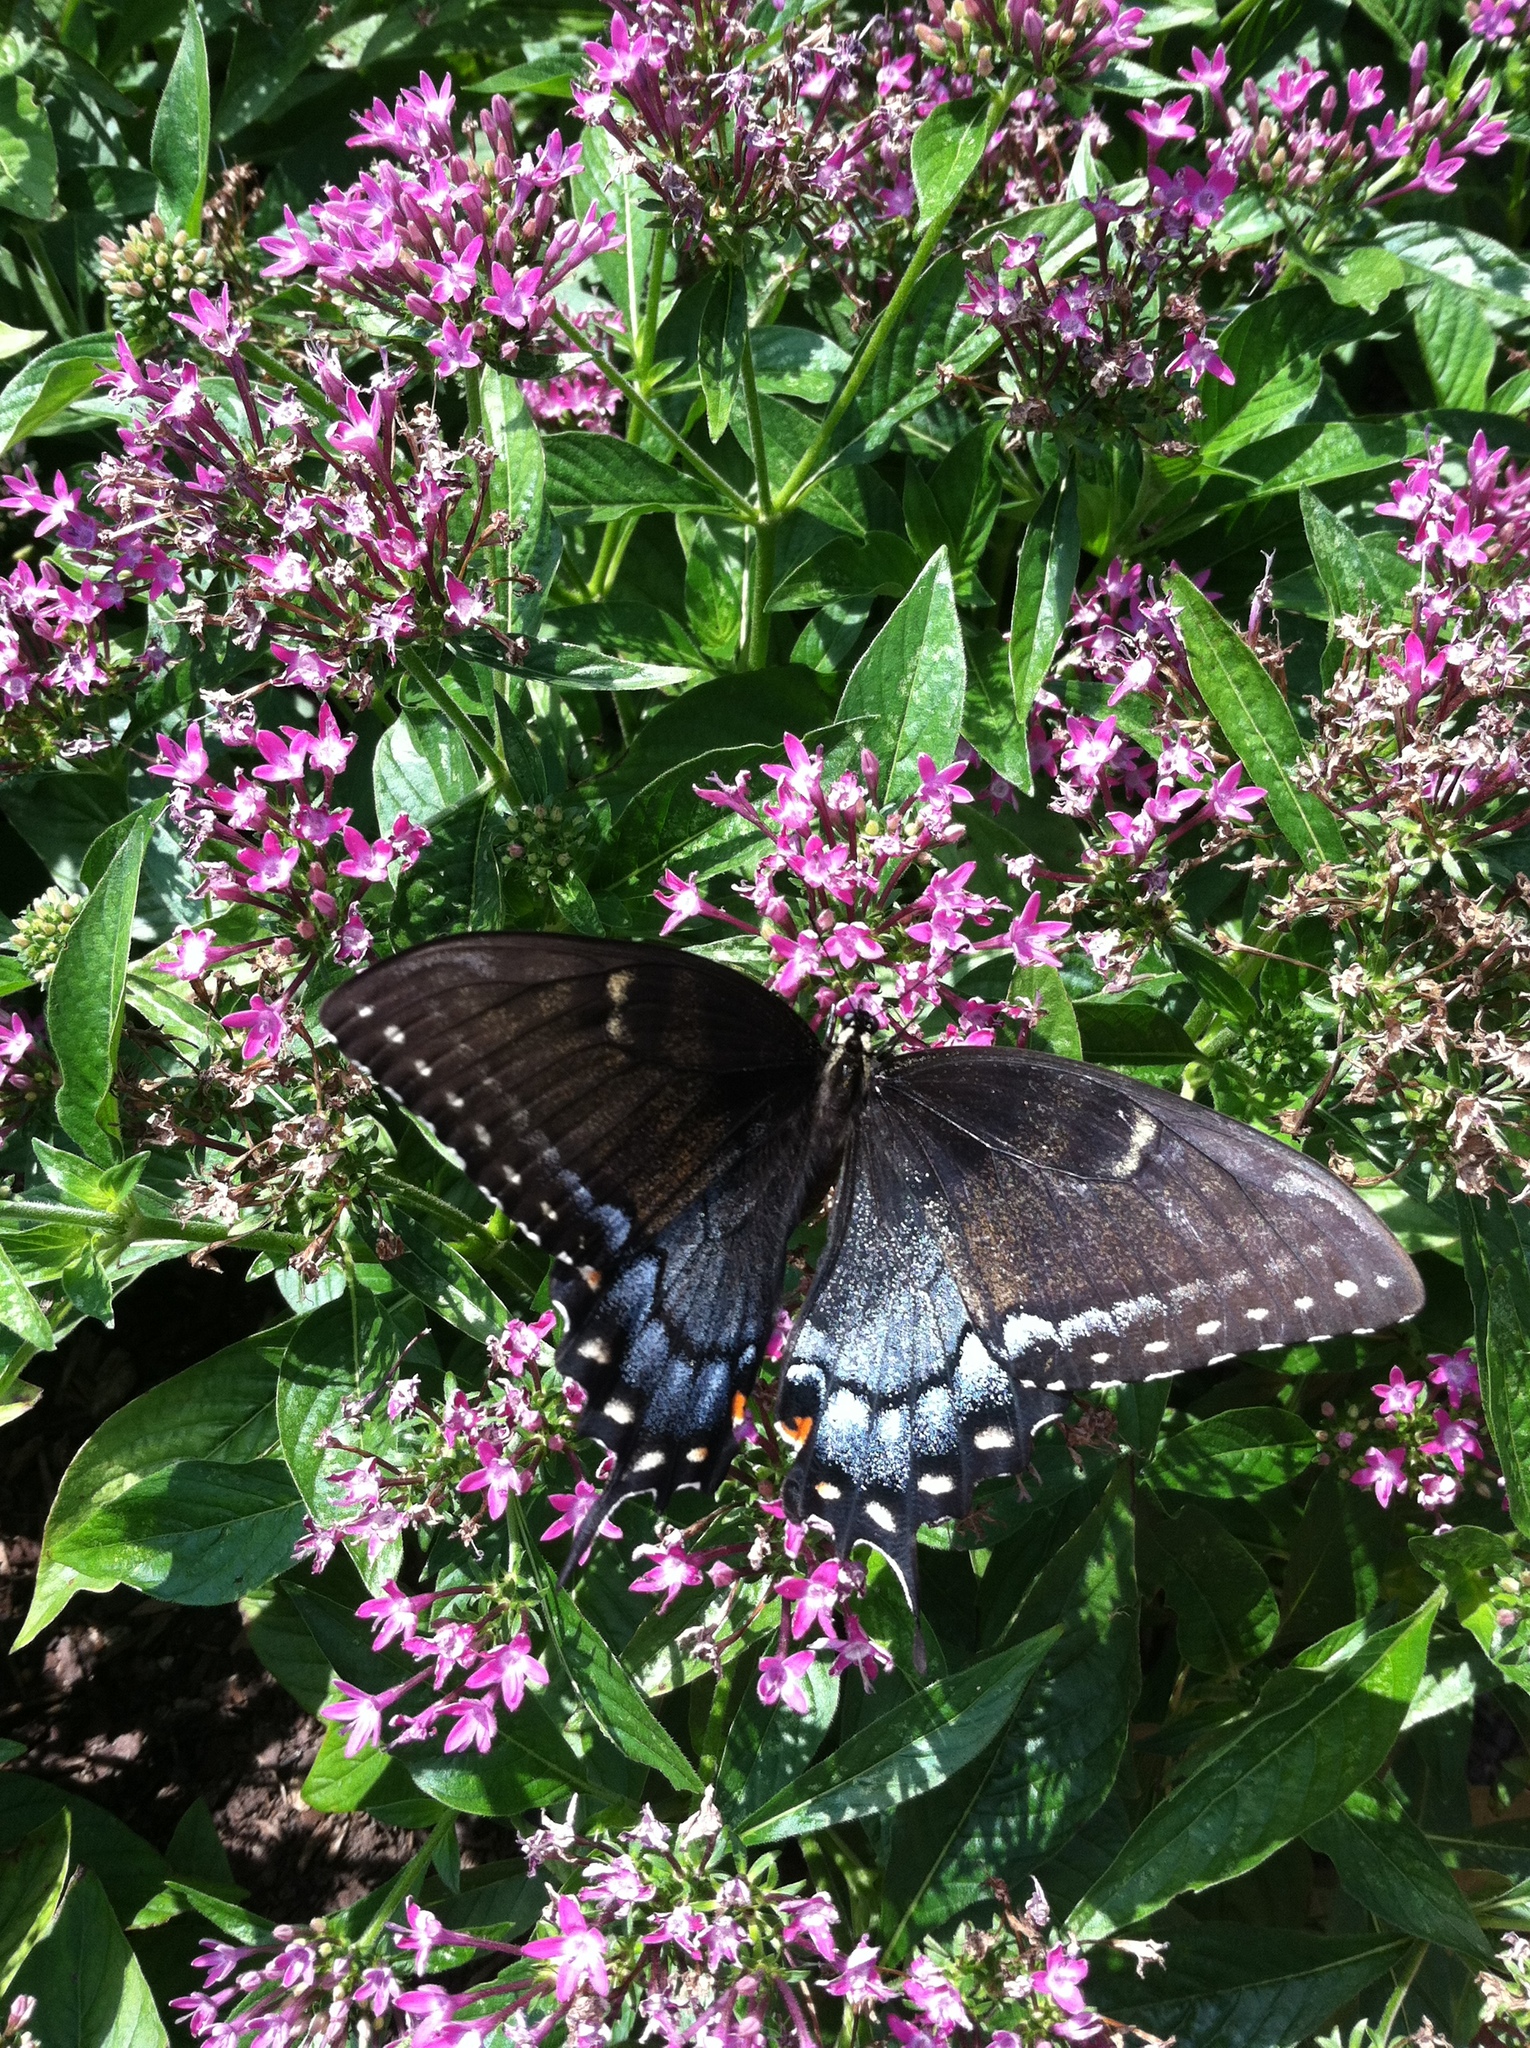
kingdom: Animalia
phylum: Arthropoda
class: Insecta
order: Lepidoptera
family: Papilionidae
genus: Papilio
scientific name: Papilio glaucus
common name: Tiger swallowtail
